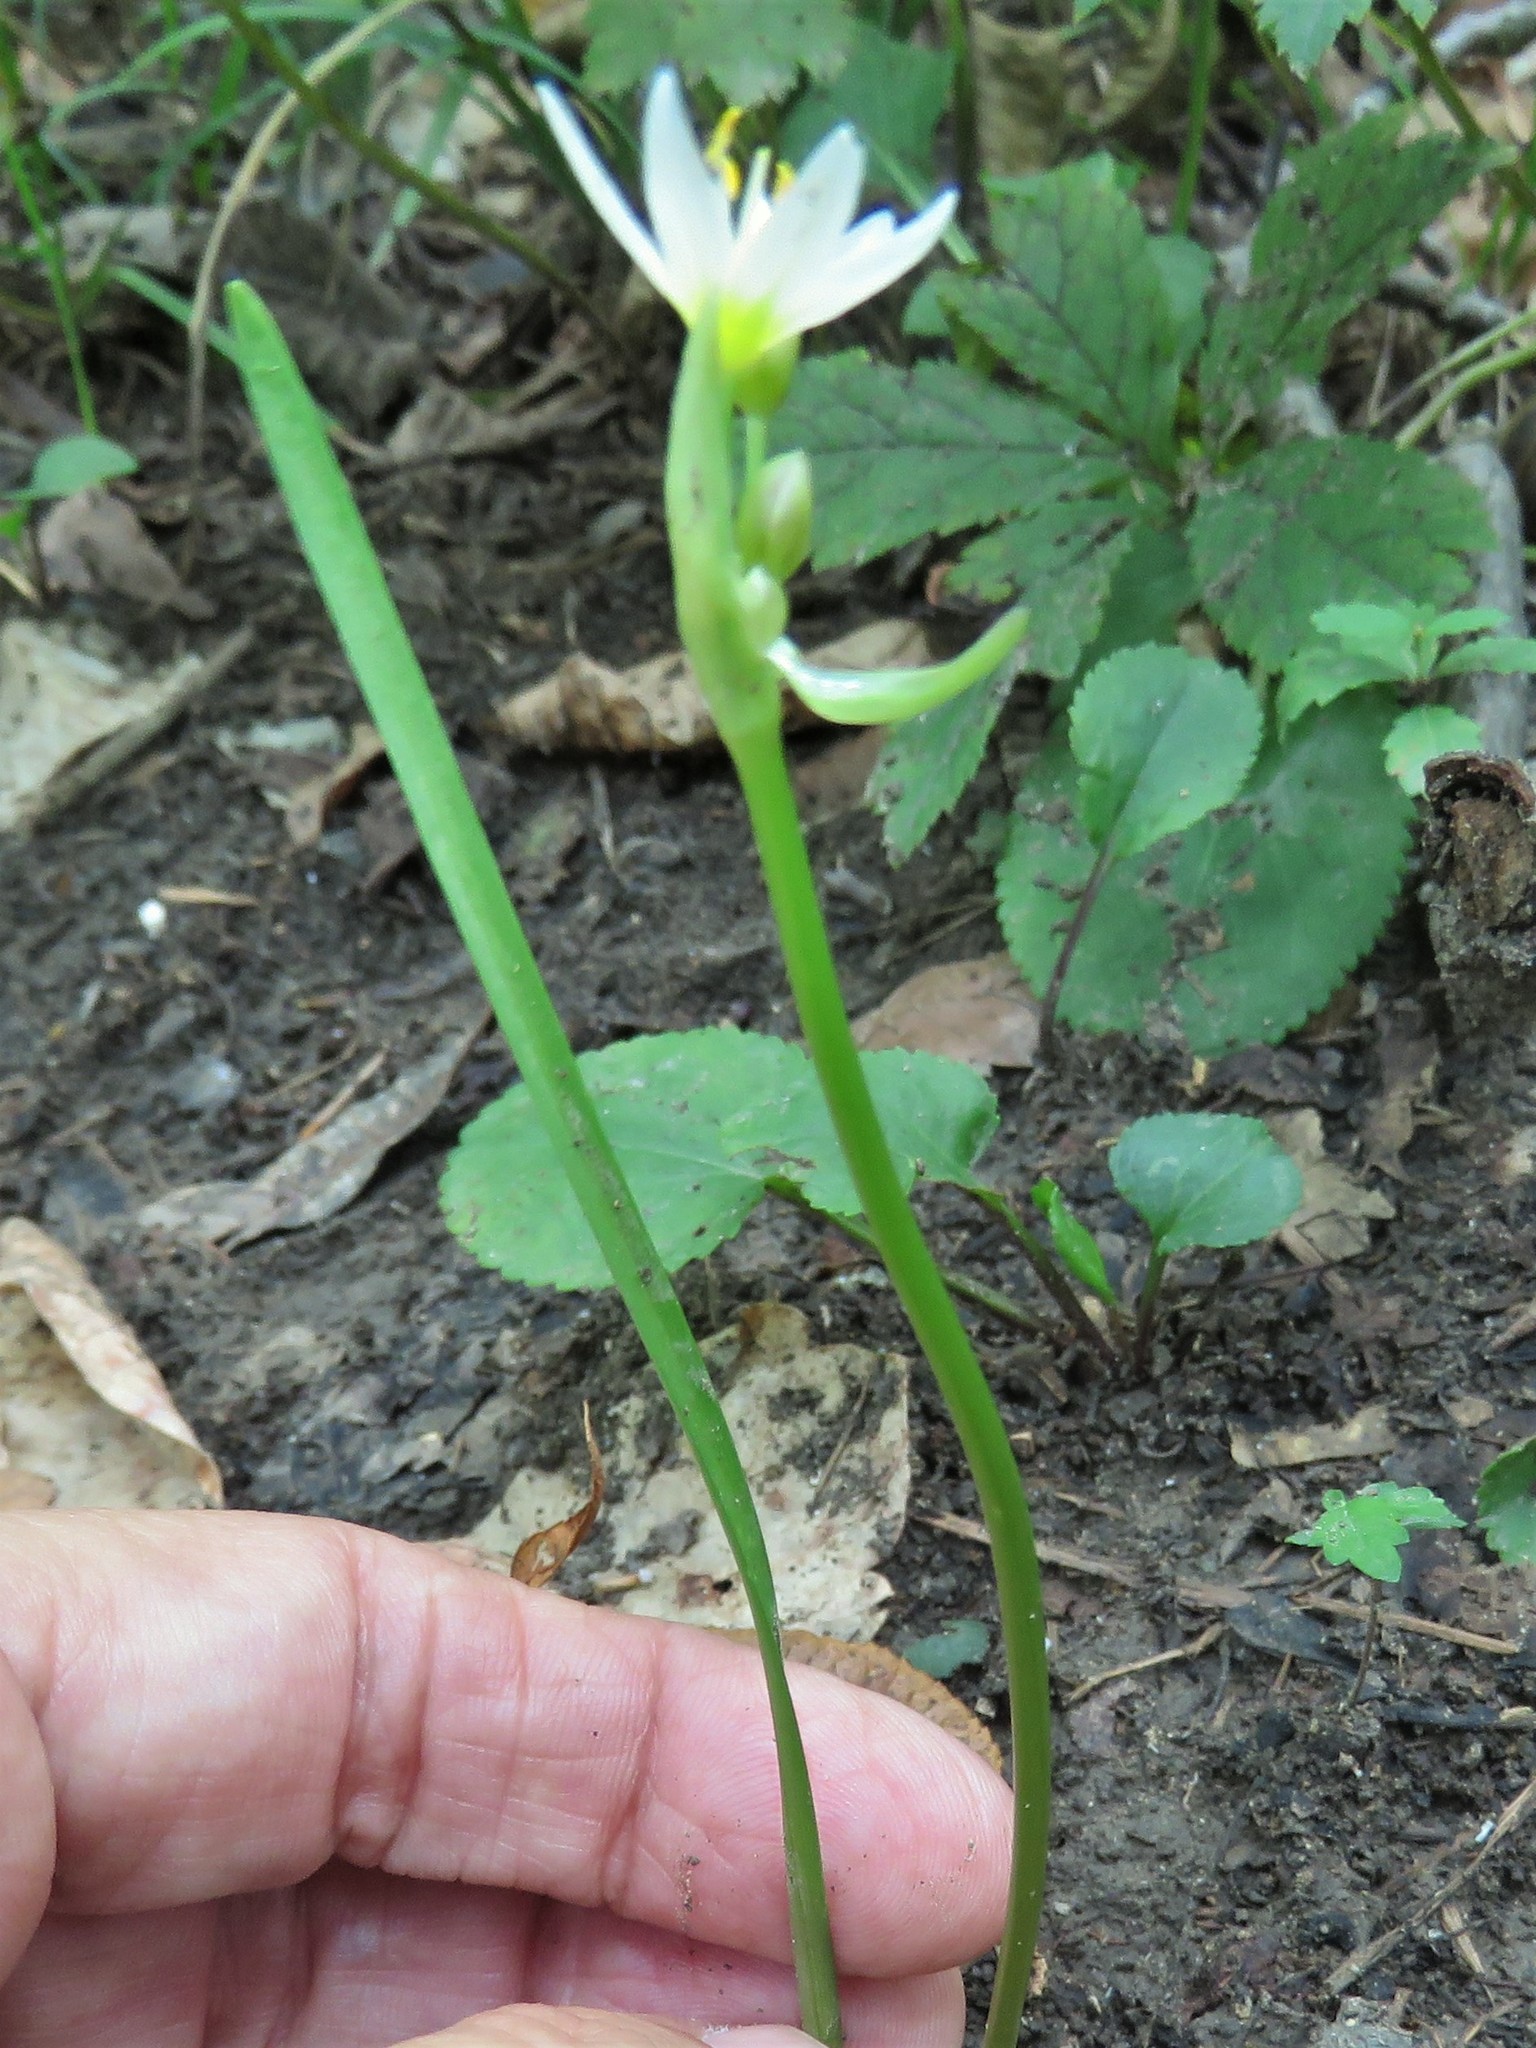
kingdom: Plantae
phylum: Tracheophyta
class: Liliopsida
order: Asparagales
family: Amaryllidaceae
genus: Nothoscordum
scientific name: Nothoscordum bivalve
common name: Crow-poison
